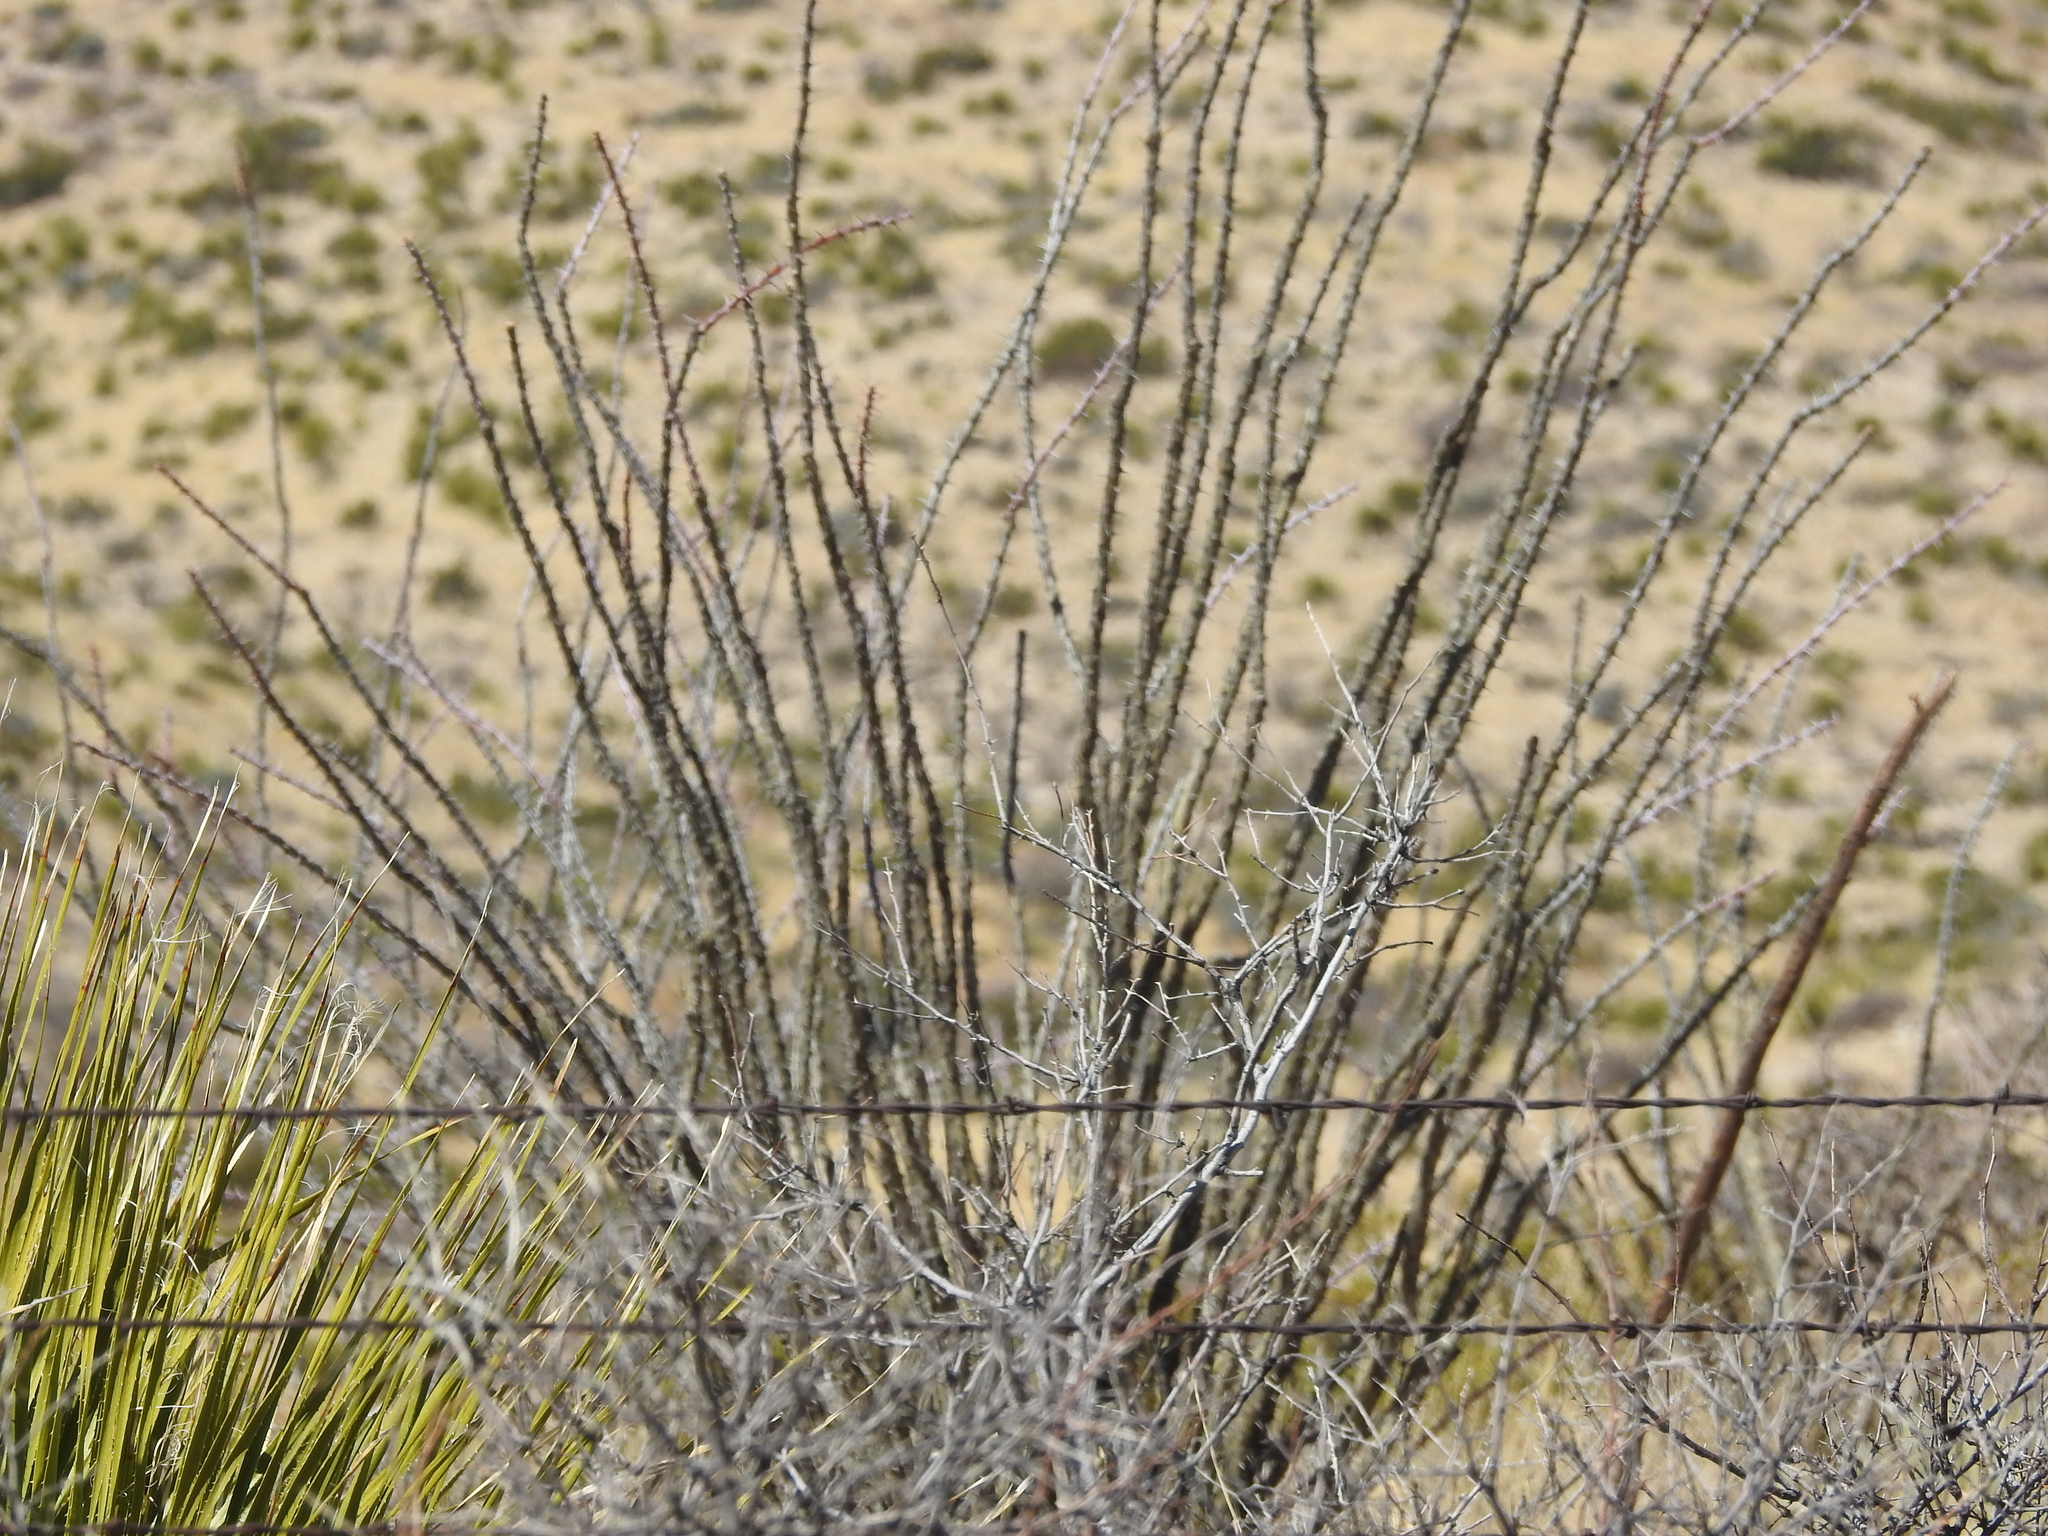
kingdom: Plantae
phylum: Tracheophyta
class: Magnoliopsida
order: Ericales
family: Fouquieriaceae
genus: Fouquieria
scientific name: Fouquieria splendens
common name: Vine-cactus
